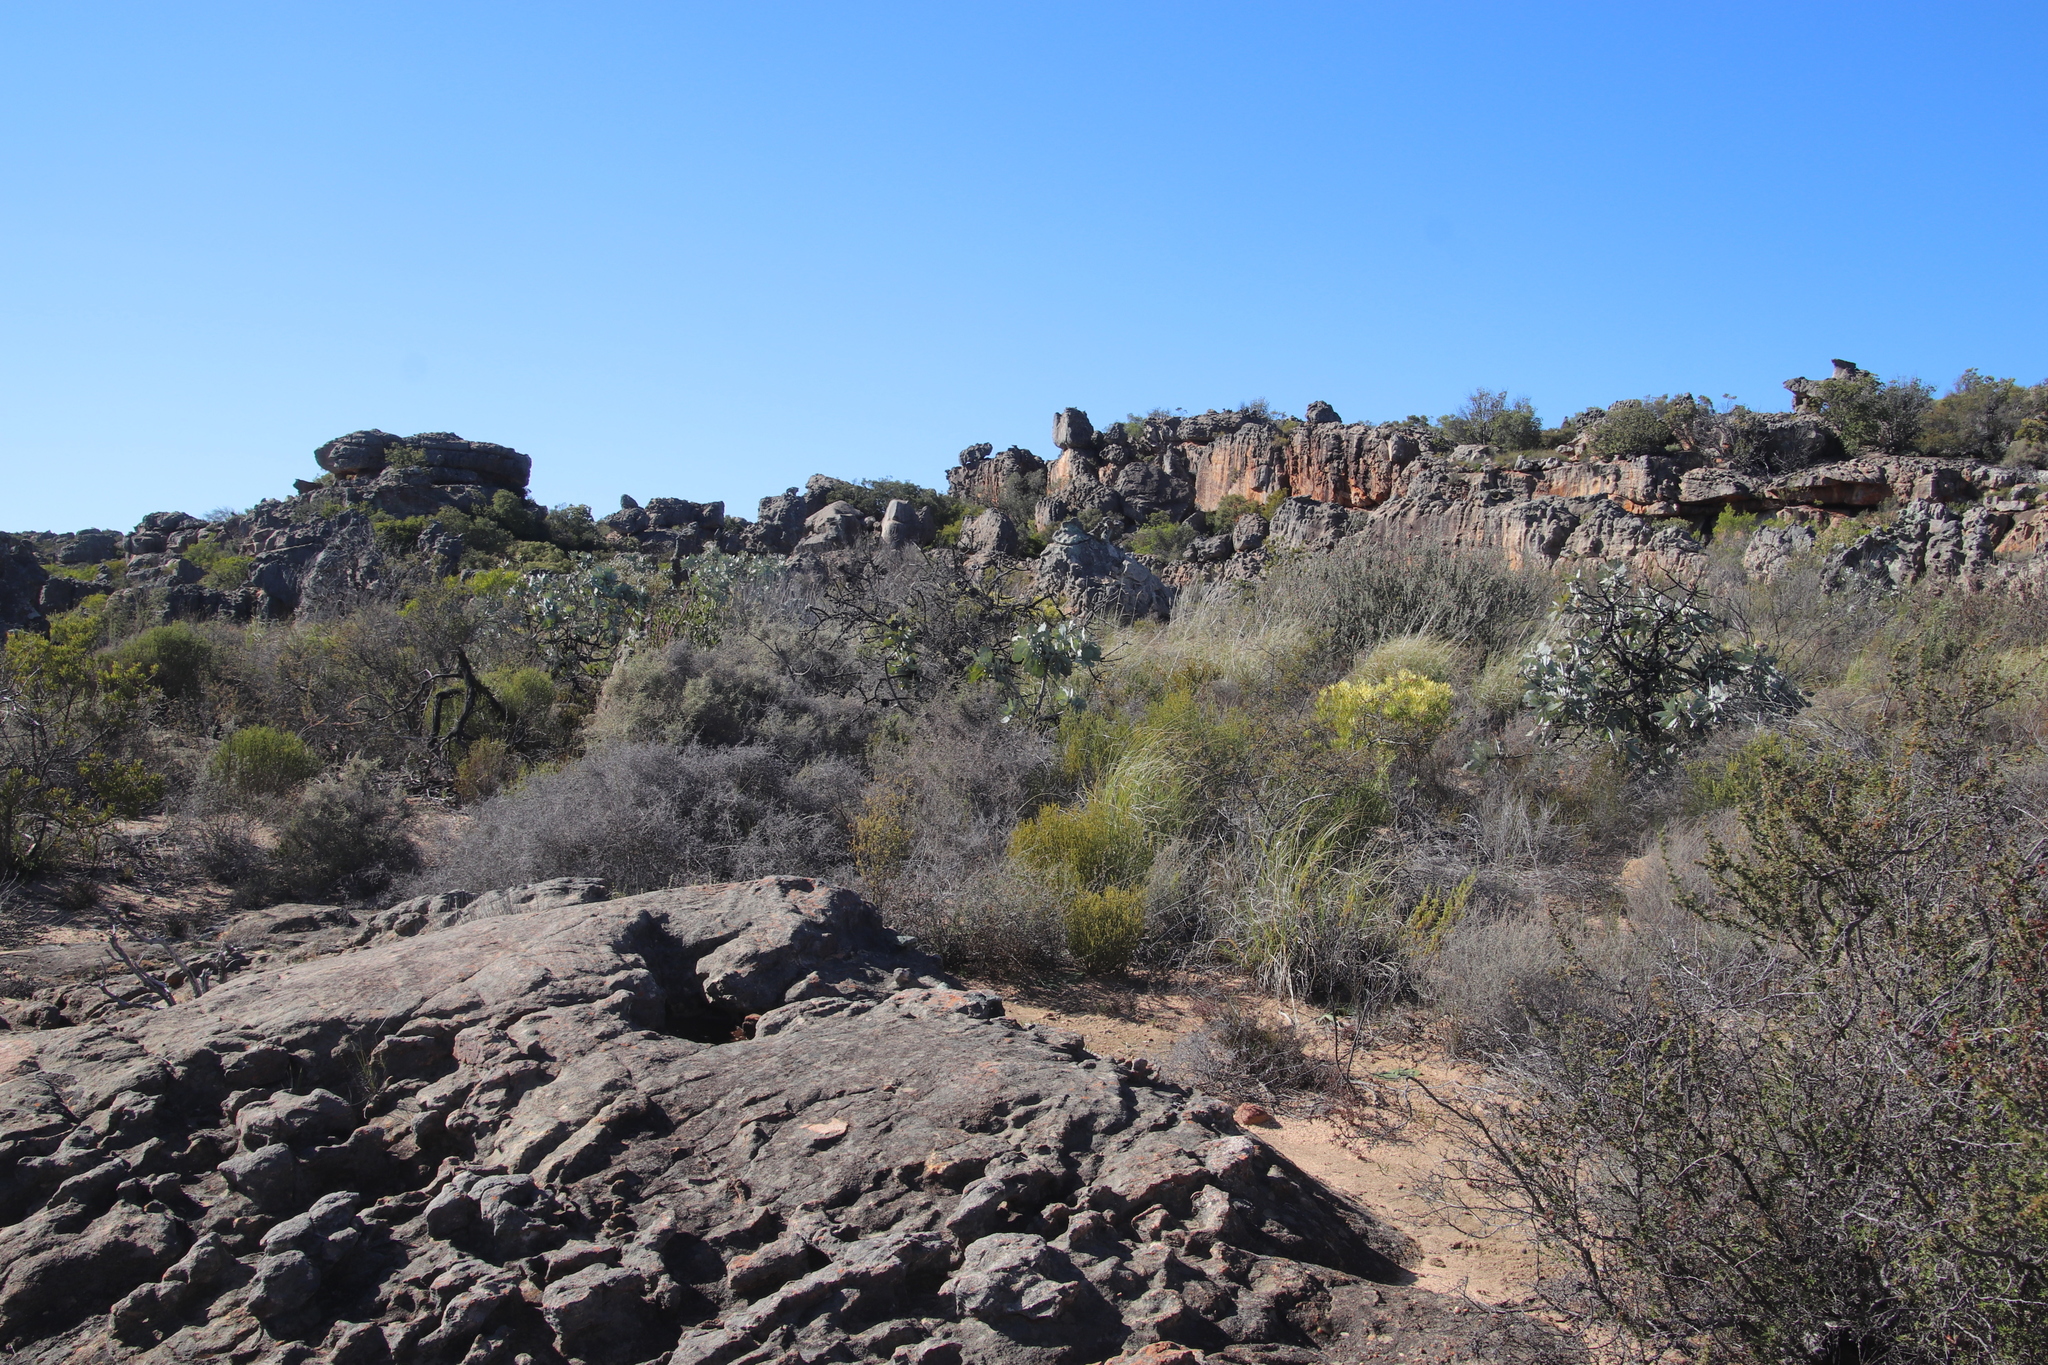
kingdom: Plantae
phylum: Tracheophyta
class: Magnoliopsida
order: Proteales
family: Proteaceae
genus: Protea
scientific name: Protea nitida
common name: Tree protea
